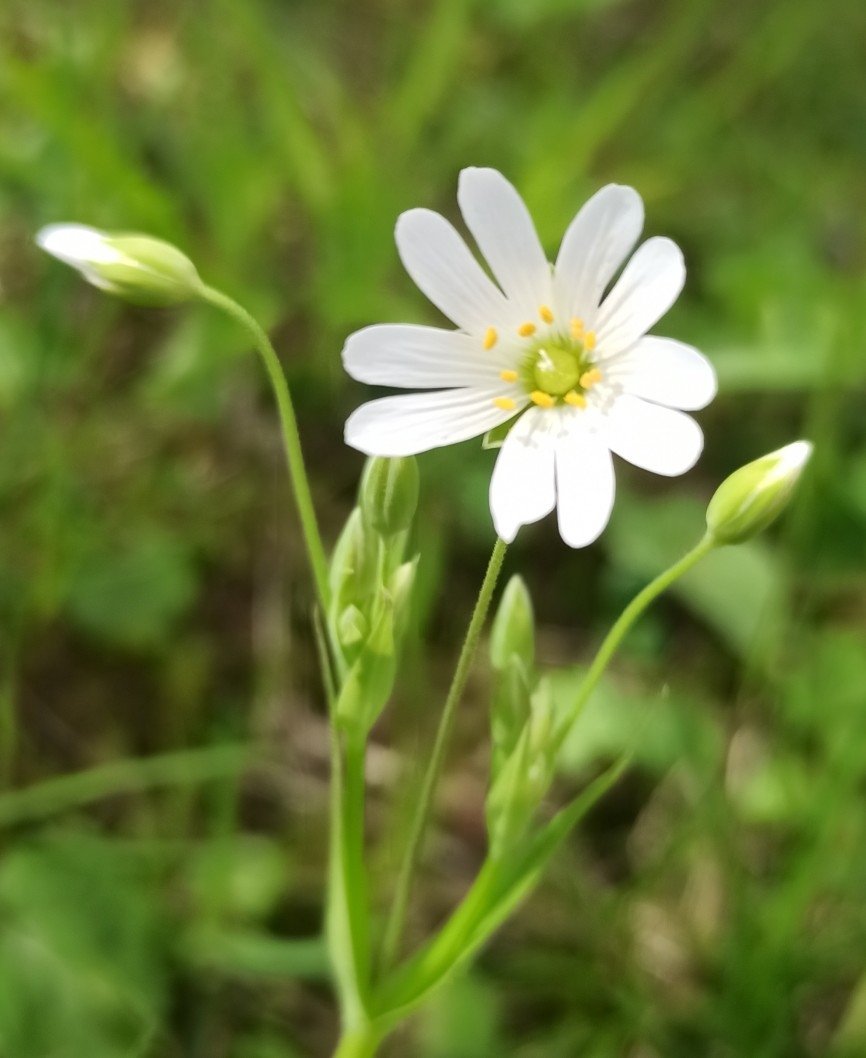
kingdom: Plantae
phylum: Tracheophyta
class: Magnoliopsida
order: Caryophyllales
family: Caryophyllaceae
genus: Rabelera
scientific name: Rabelera holostea
